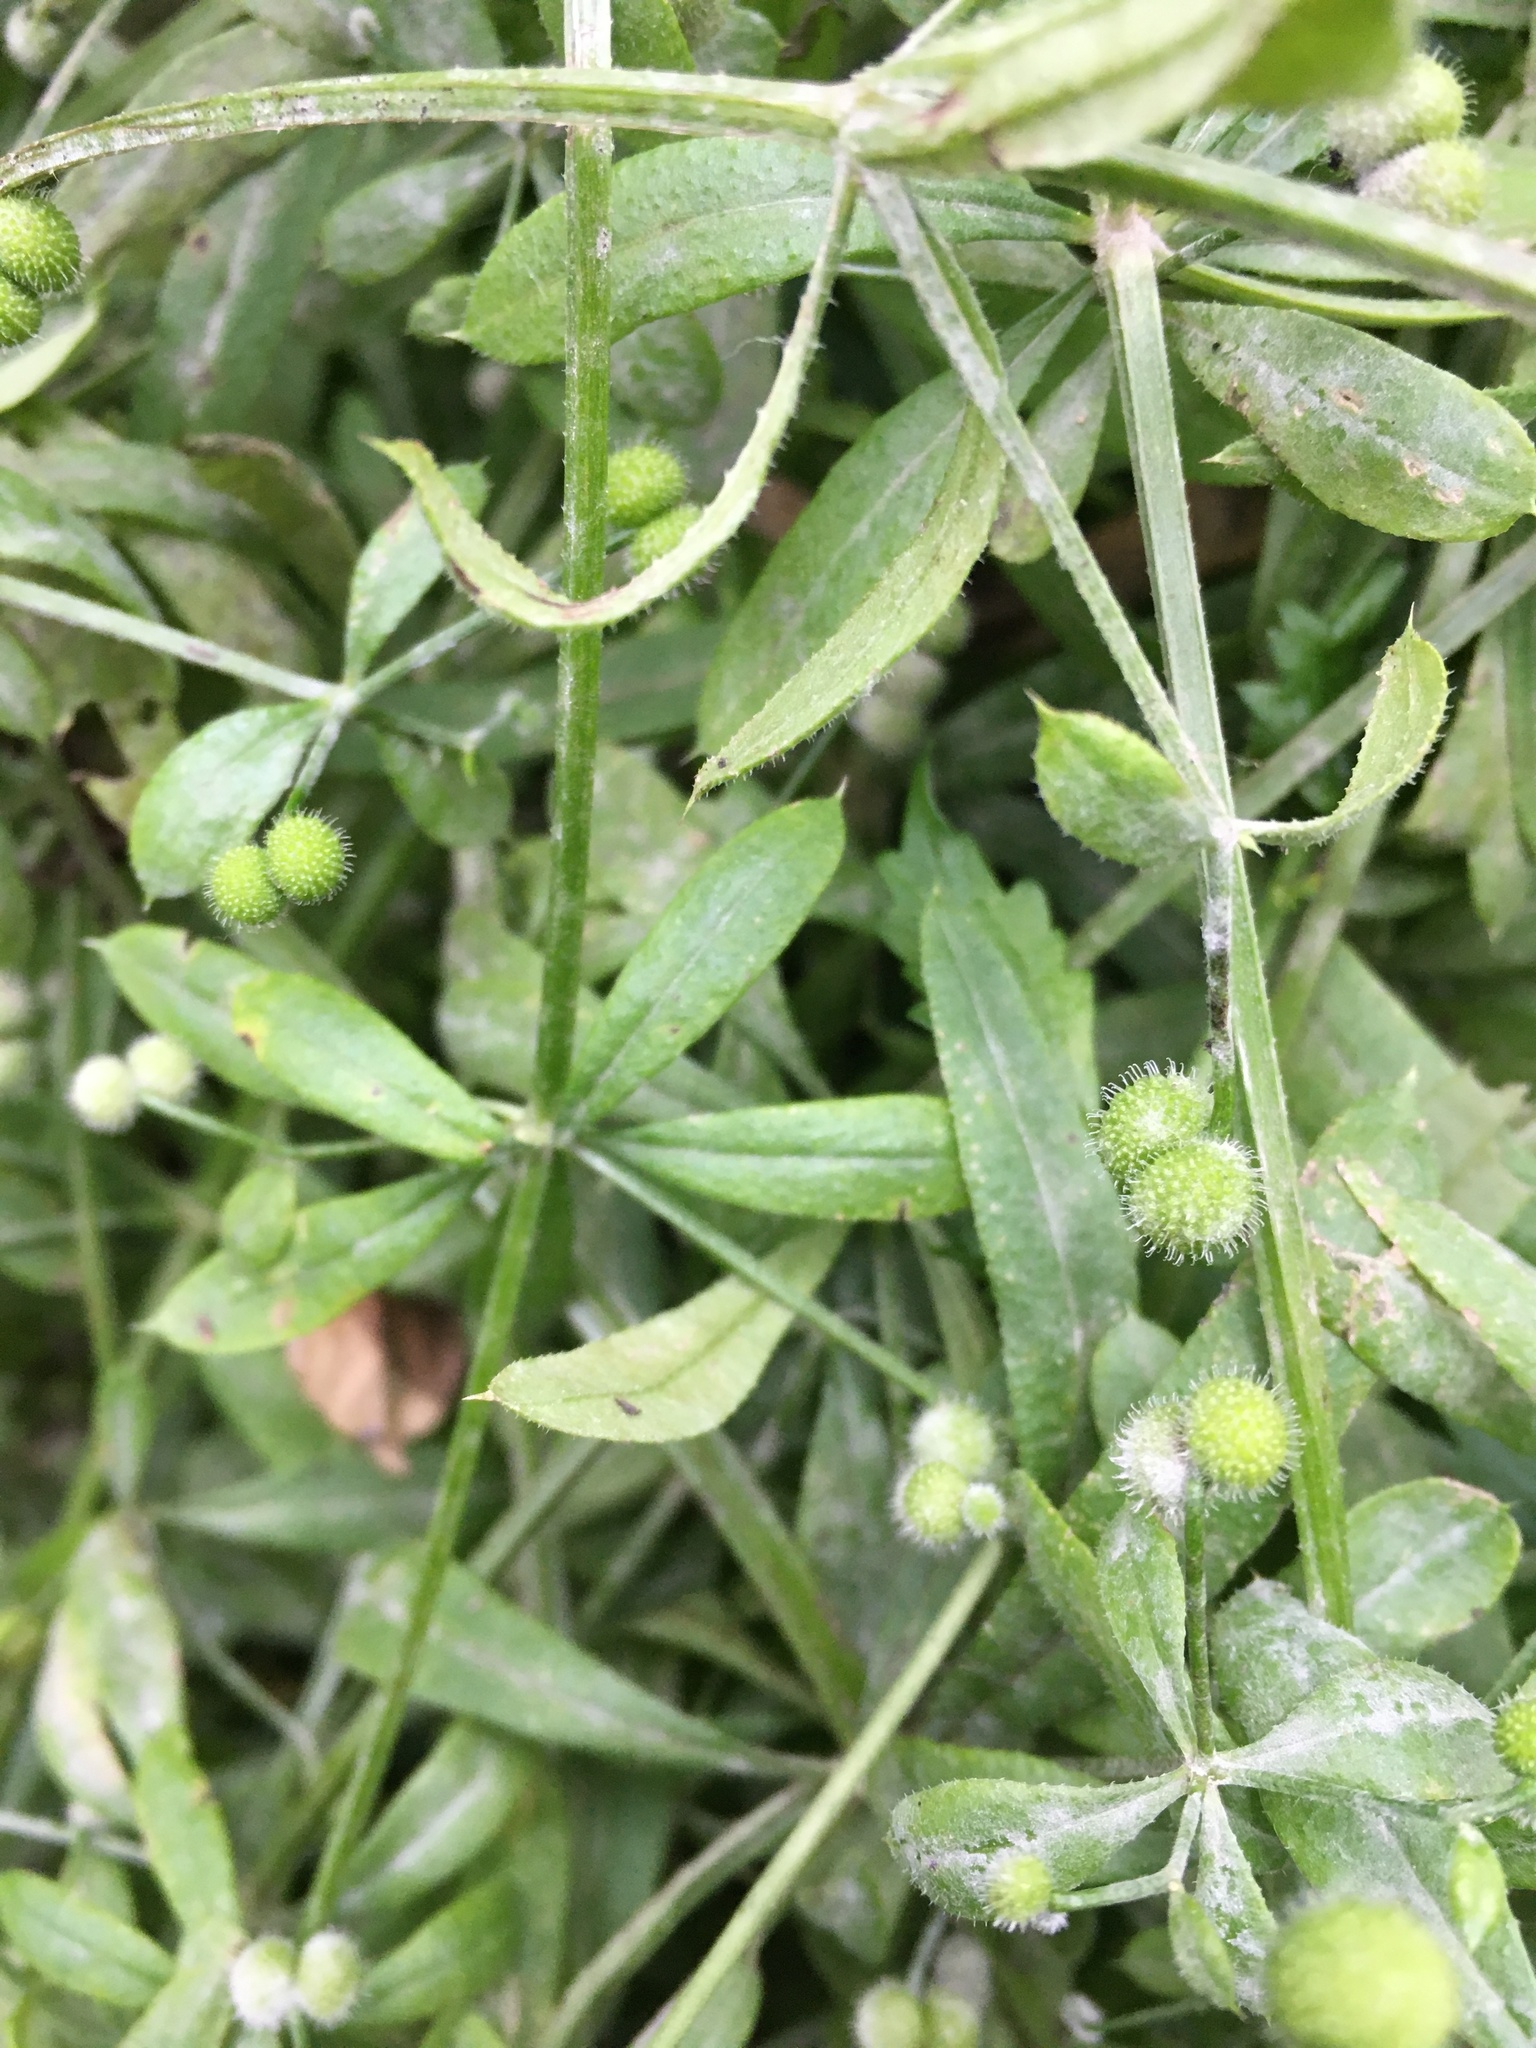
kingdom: Plantae
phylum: Tracheophyta
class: Magnoliopsida
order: Gentianales
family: Rubiaceae
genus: Galium
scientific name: Galium aparine
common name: Cleavers
